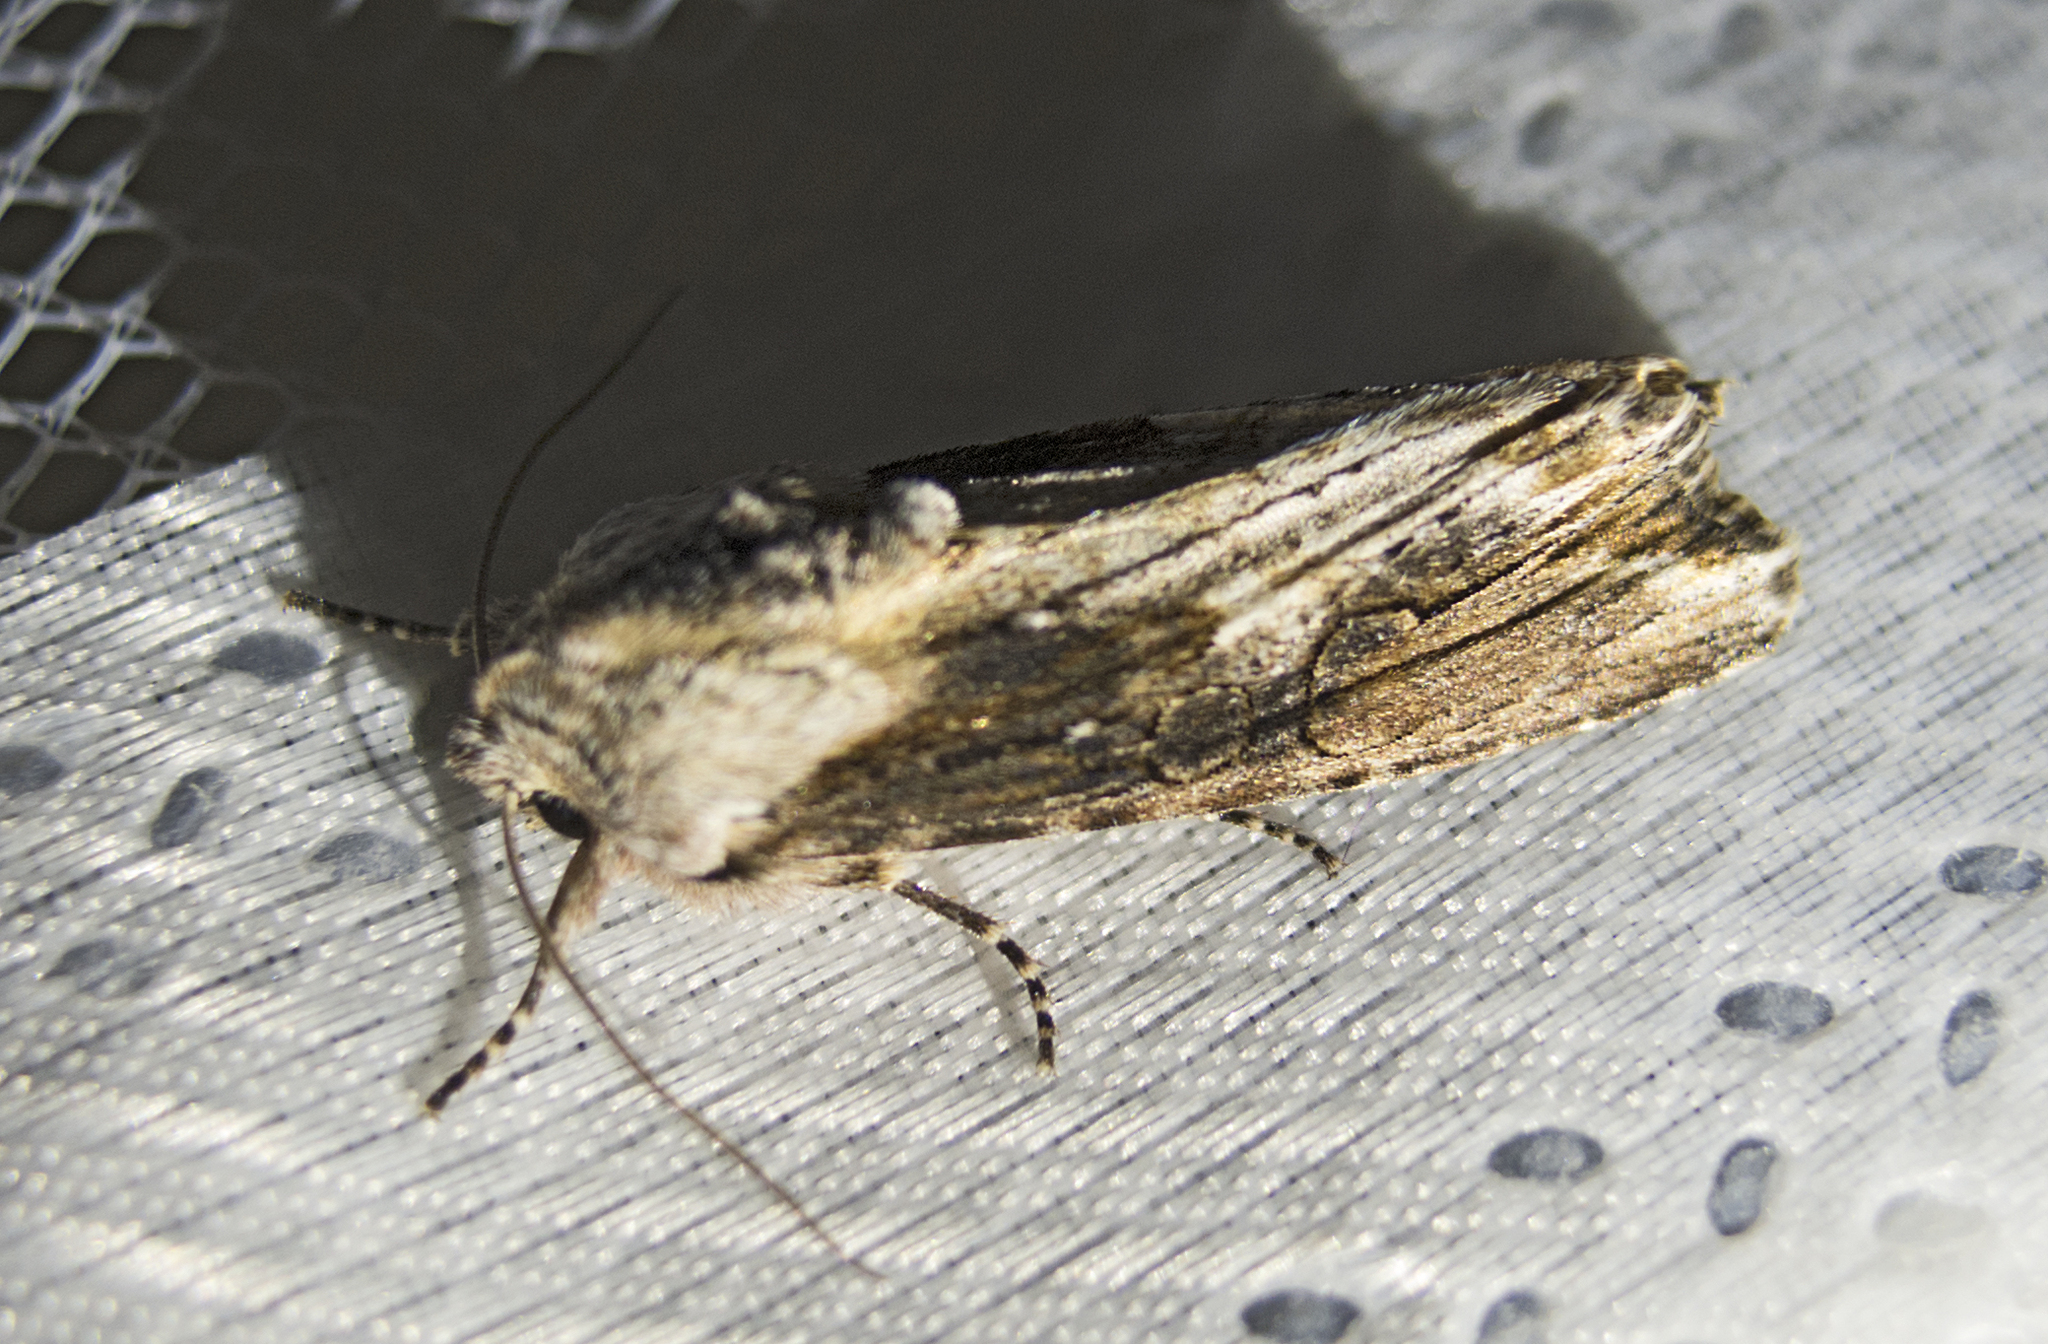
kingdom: Animalia
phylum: Arthropoda
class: Insecta
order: Lepidoptera
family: Noctuidae
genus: Egira
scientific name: Egira conspicillaris
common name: Silver cloud
